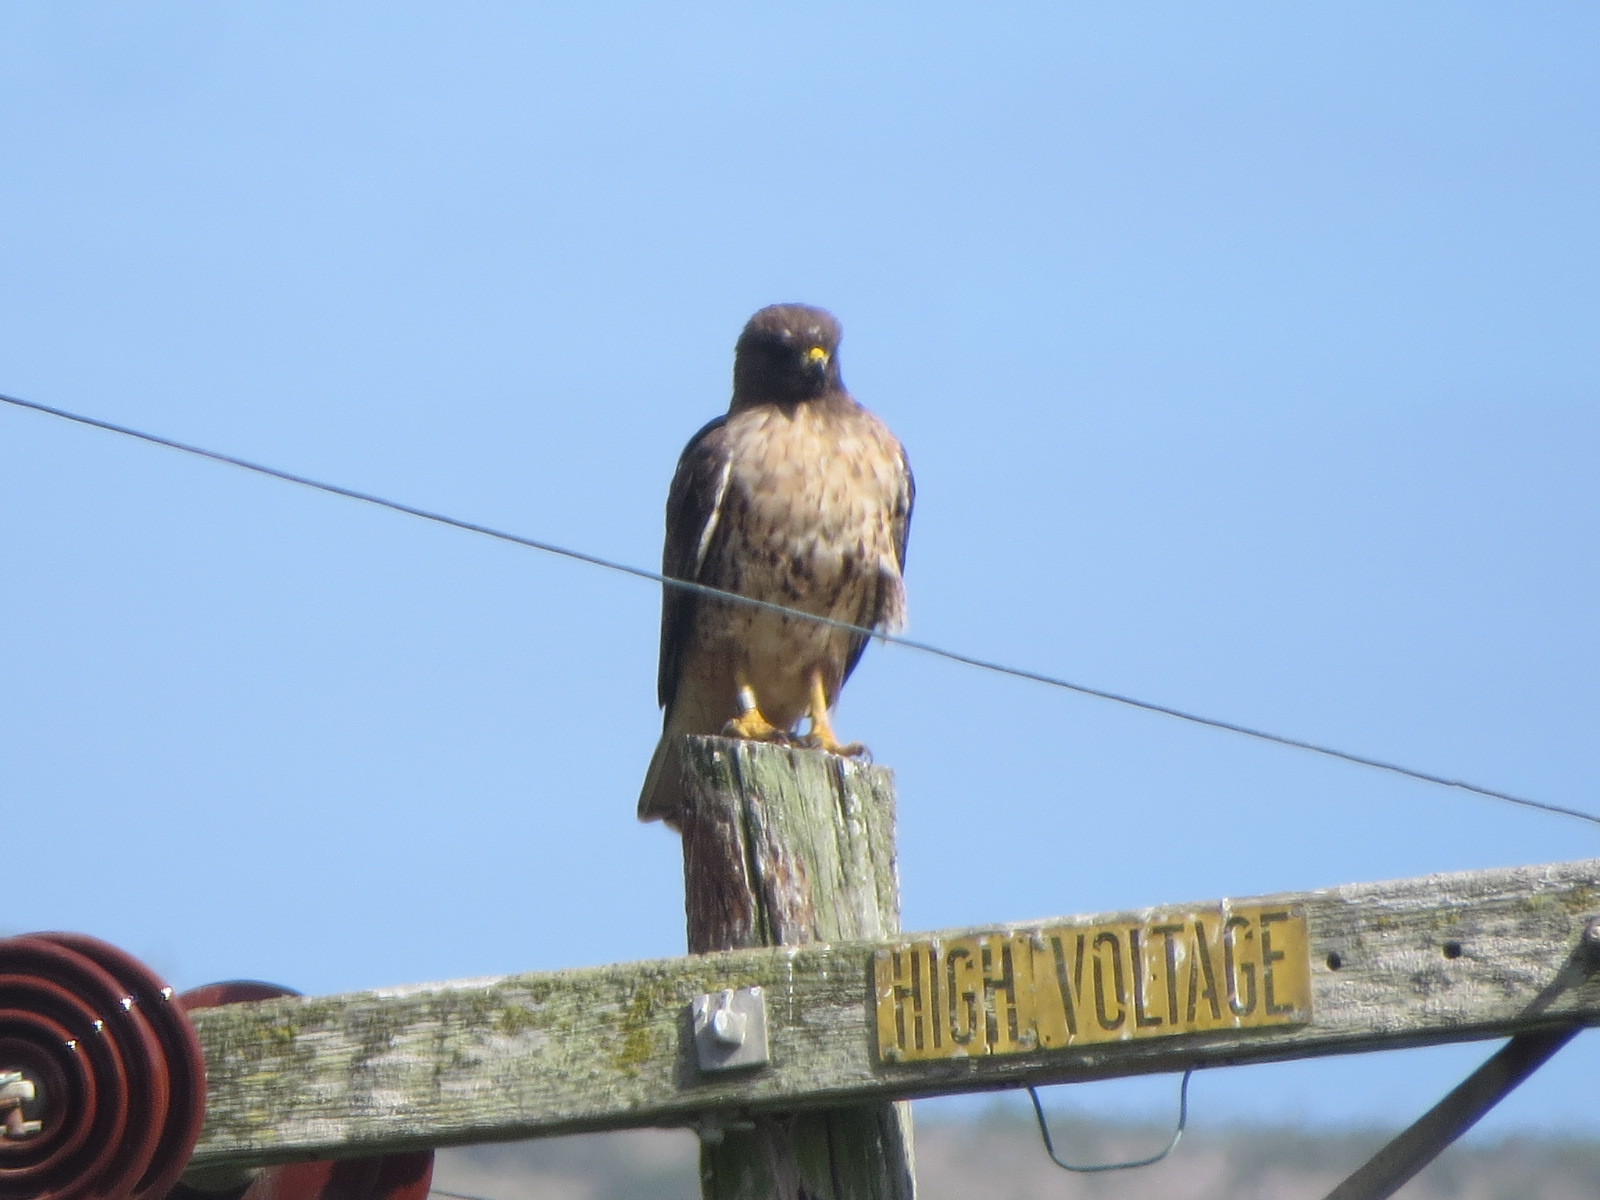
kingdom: Animalia
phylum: Chordata
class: Aves
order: Accipitriformes
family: Accipitridae
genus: Buteo
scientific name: Buteo jamaicensis
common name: Red-tailed hawk
